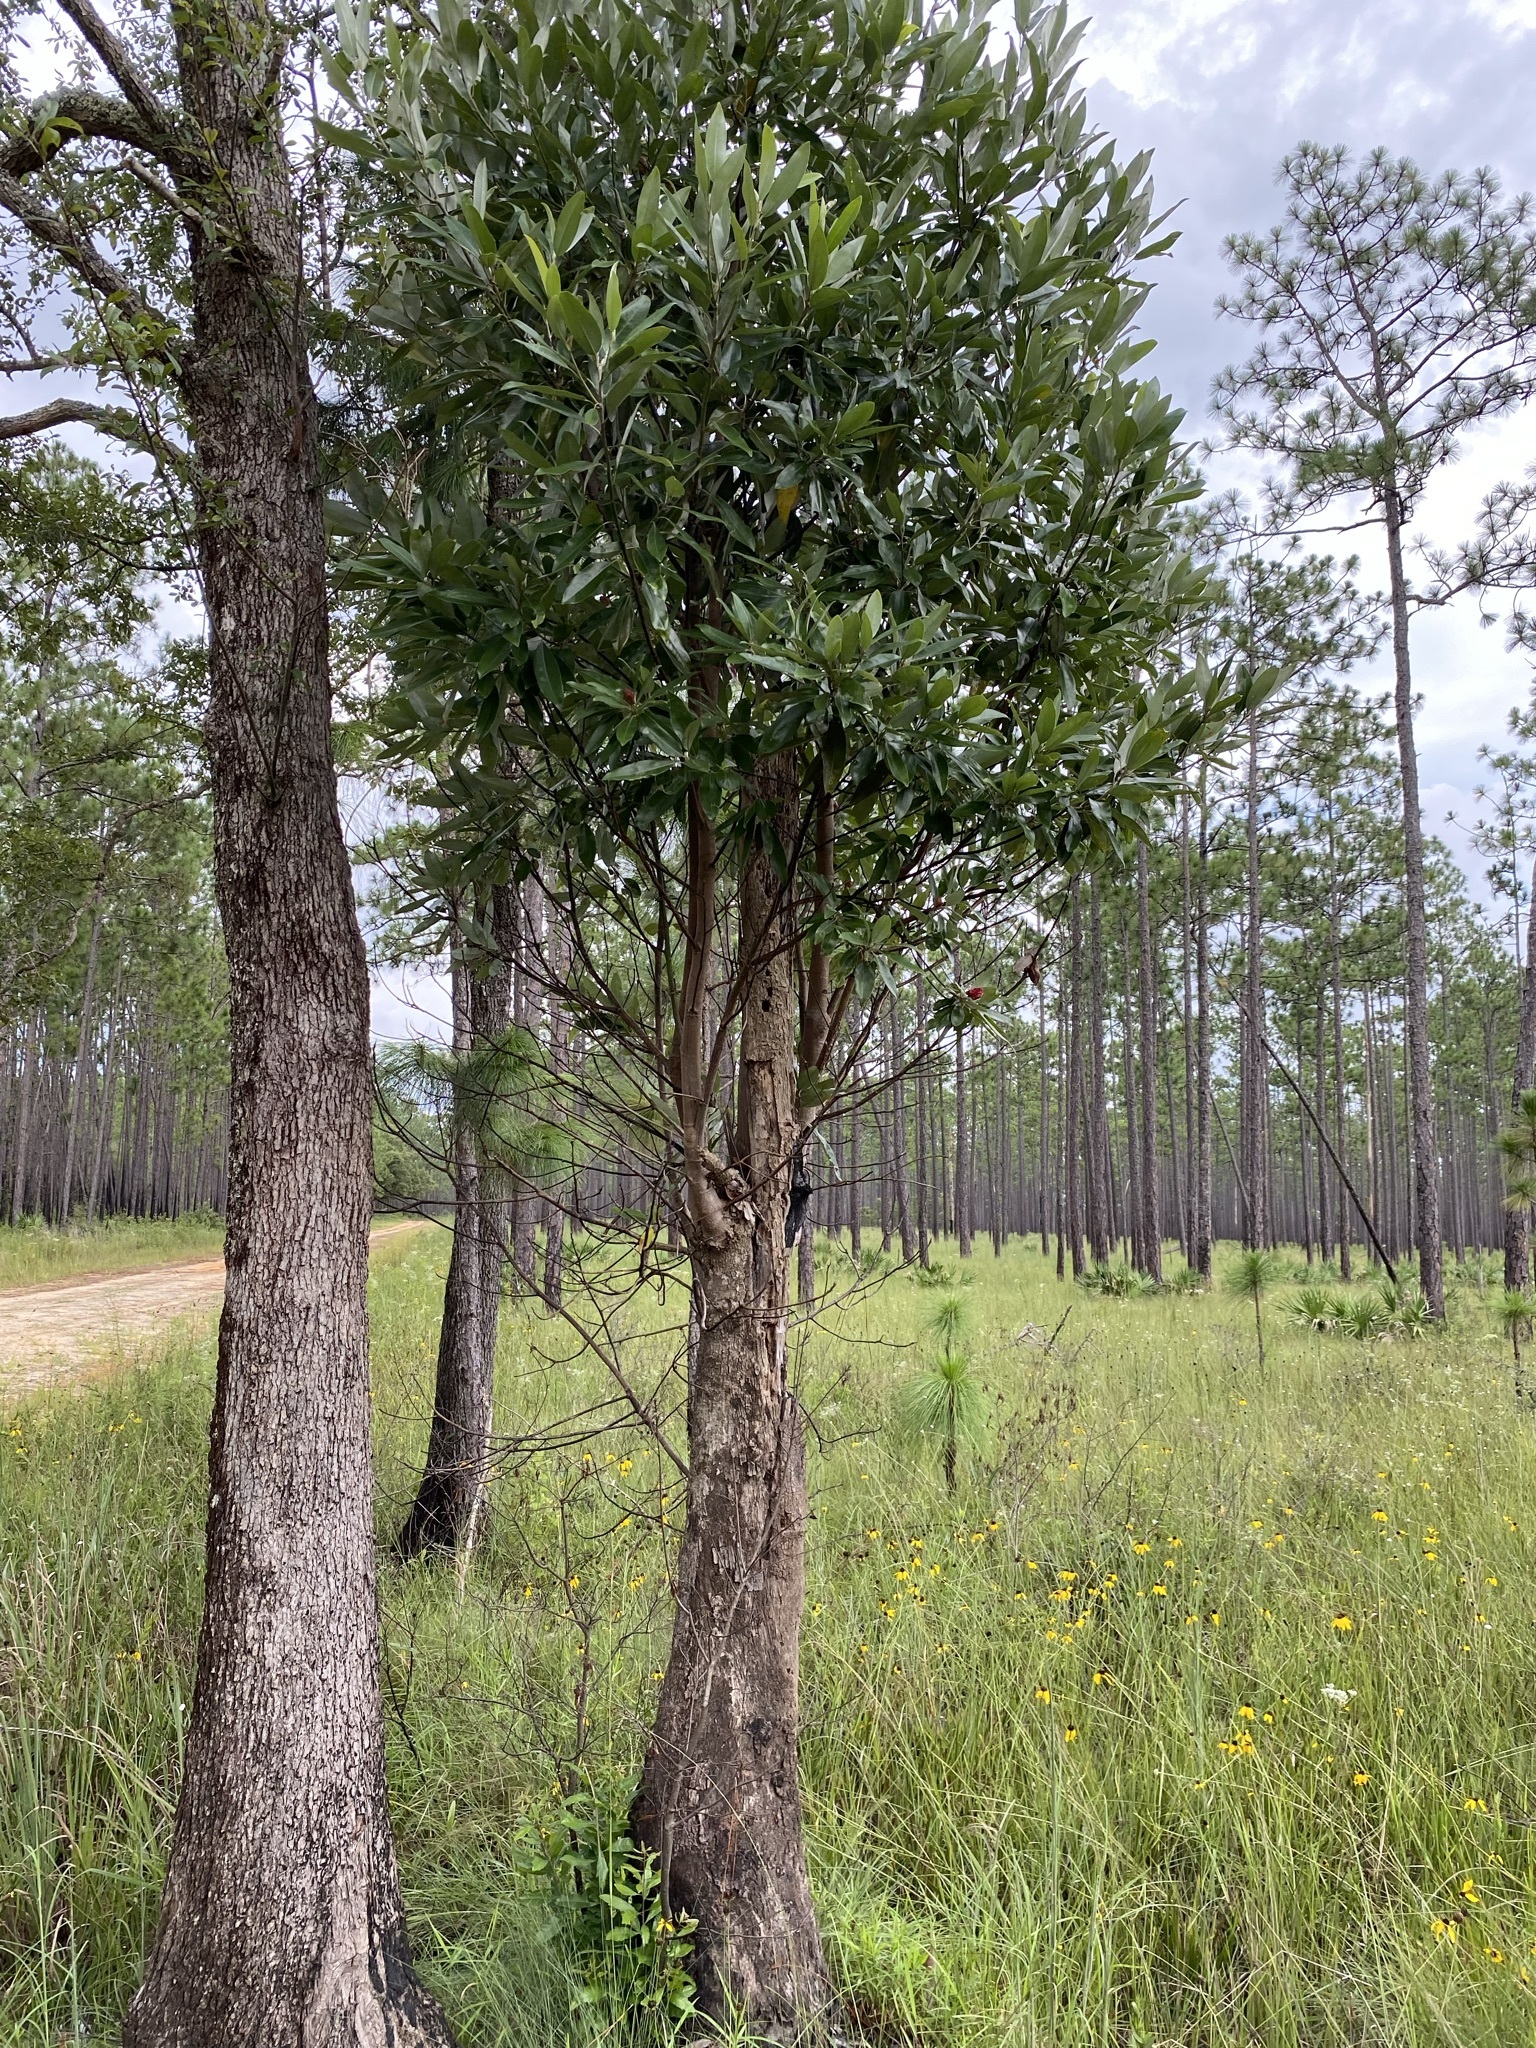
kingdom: Plantae
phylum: Tracheophyta
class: Magnoliopsida
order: Magnoliales
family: Magnoliaceae
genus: Magnolia
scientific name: Magnolia virginiana
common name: Swamp bay
